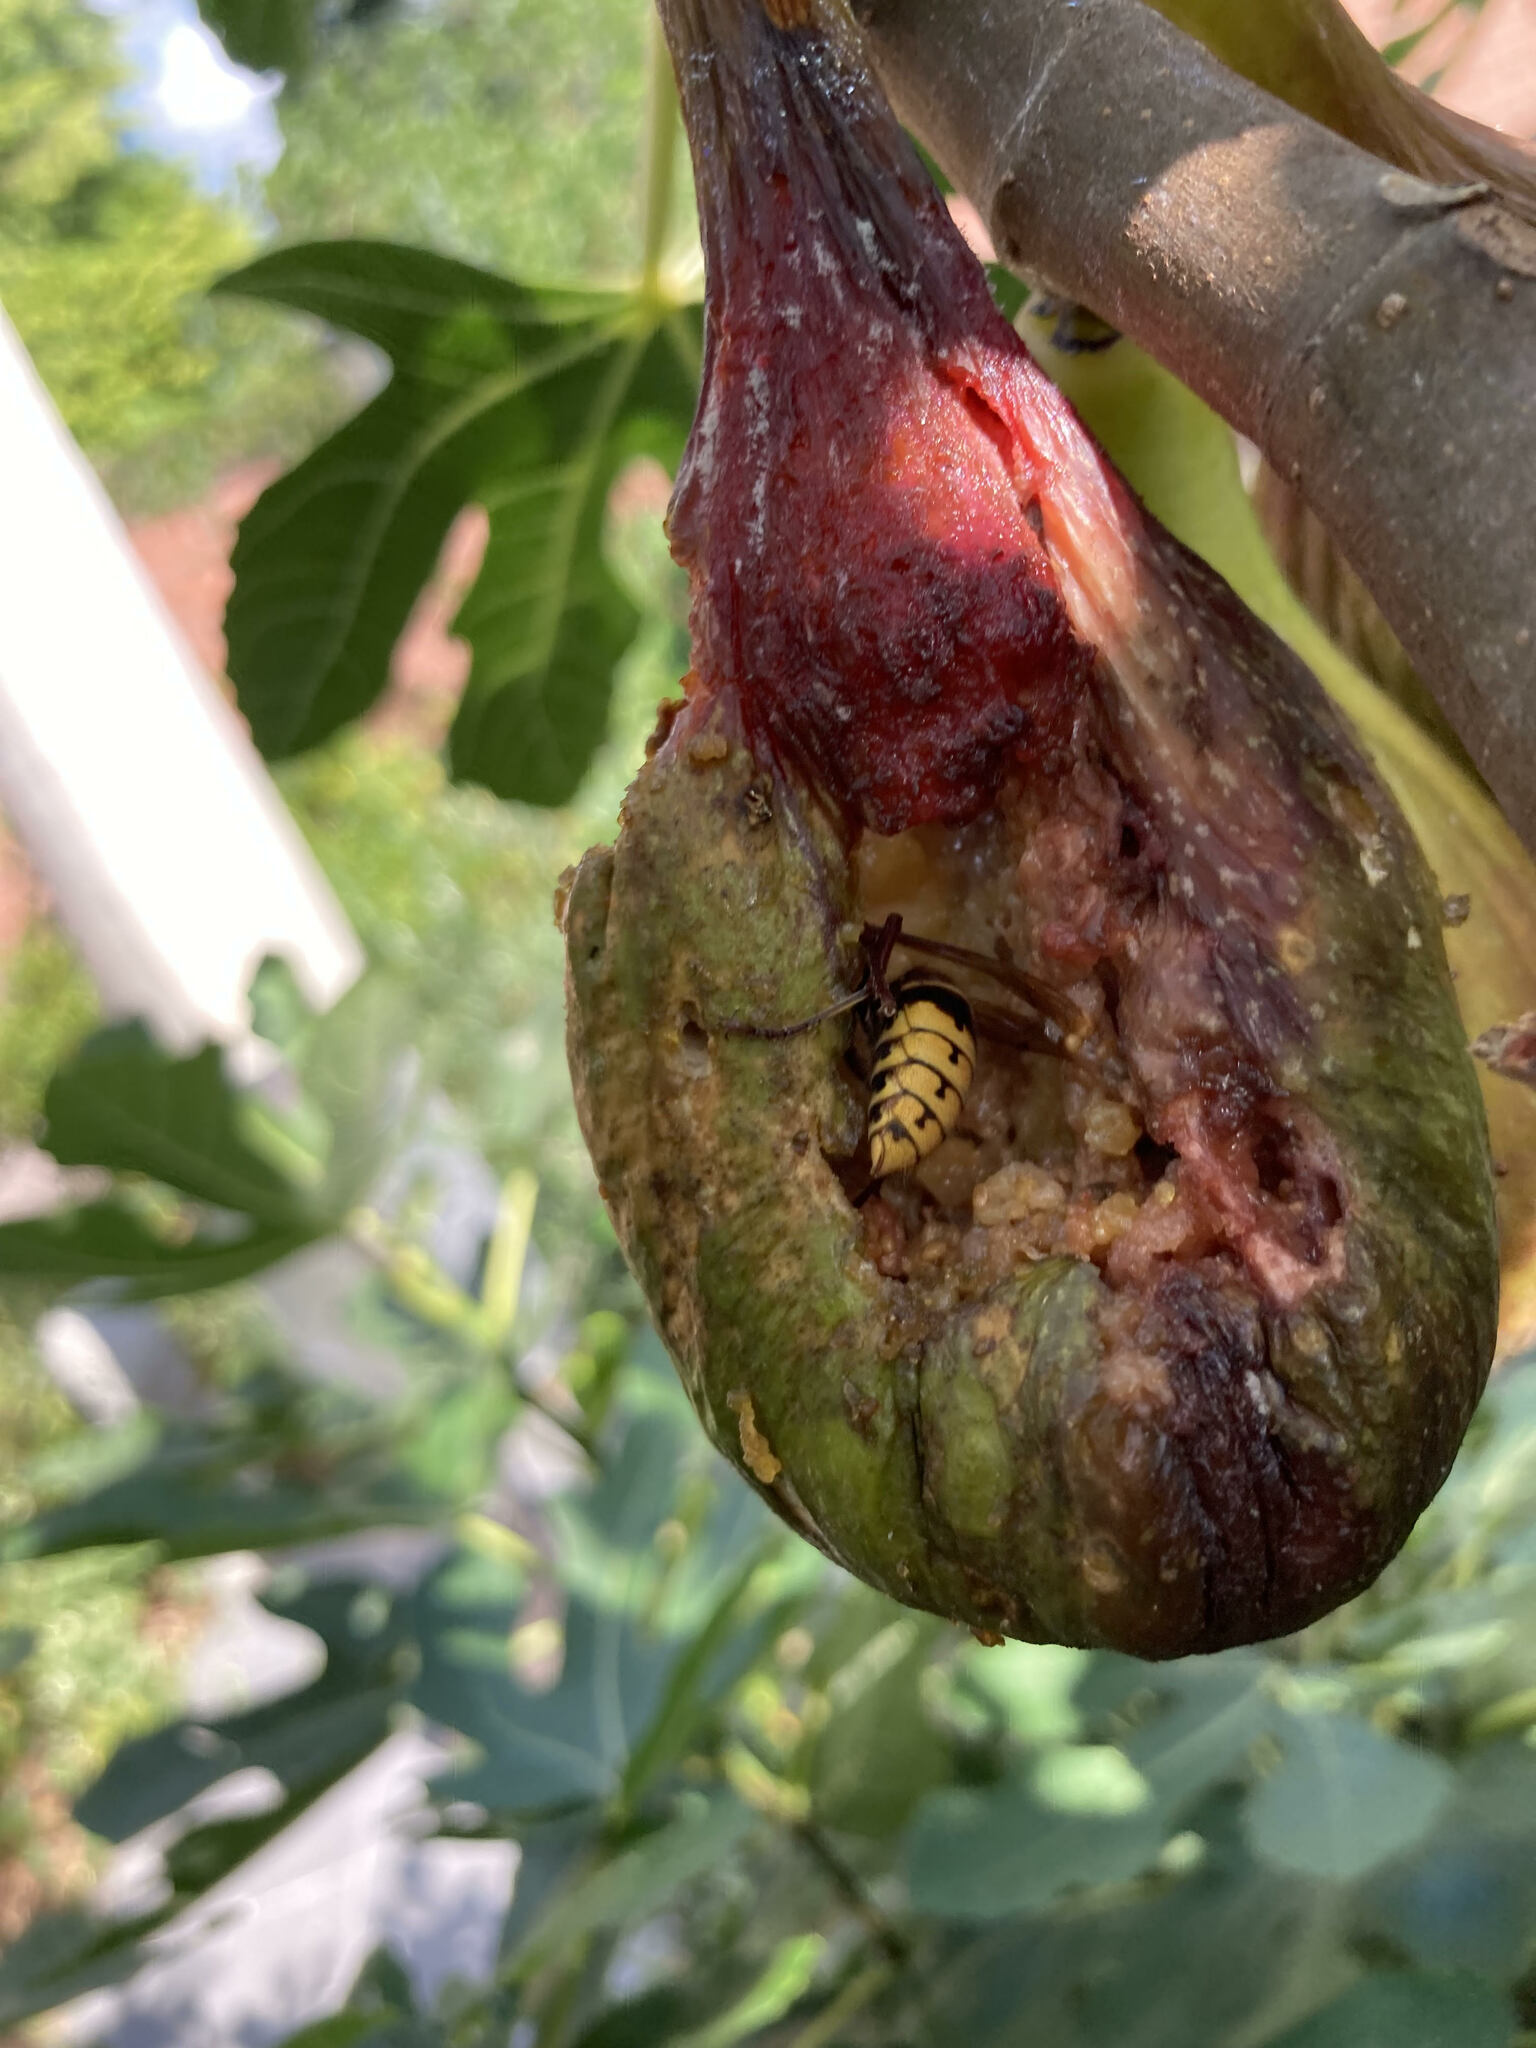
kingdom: Animalia
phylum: Arthropoda
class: Insecta
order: Hymenoptera
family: Vespidae
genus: Vespa
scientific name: Vespa crabro
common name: Hornet
